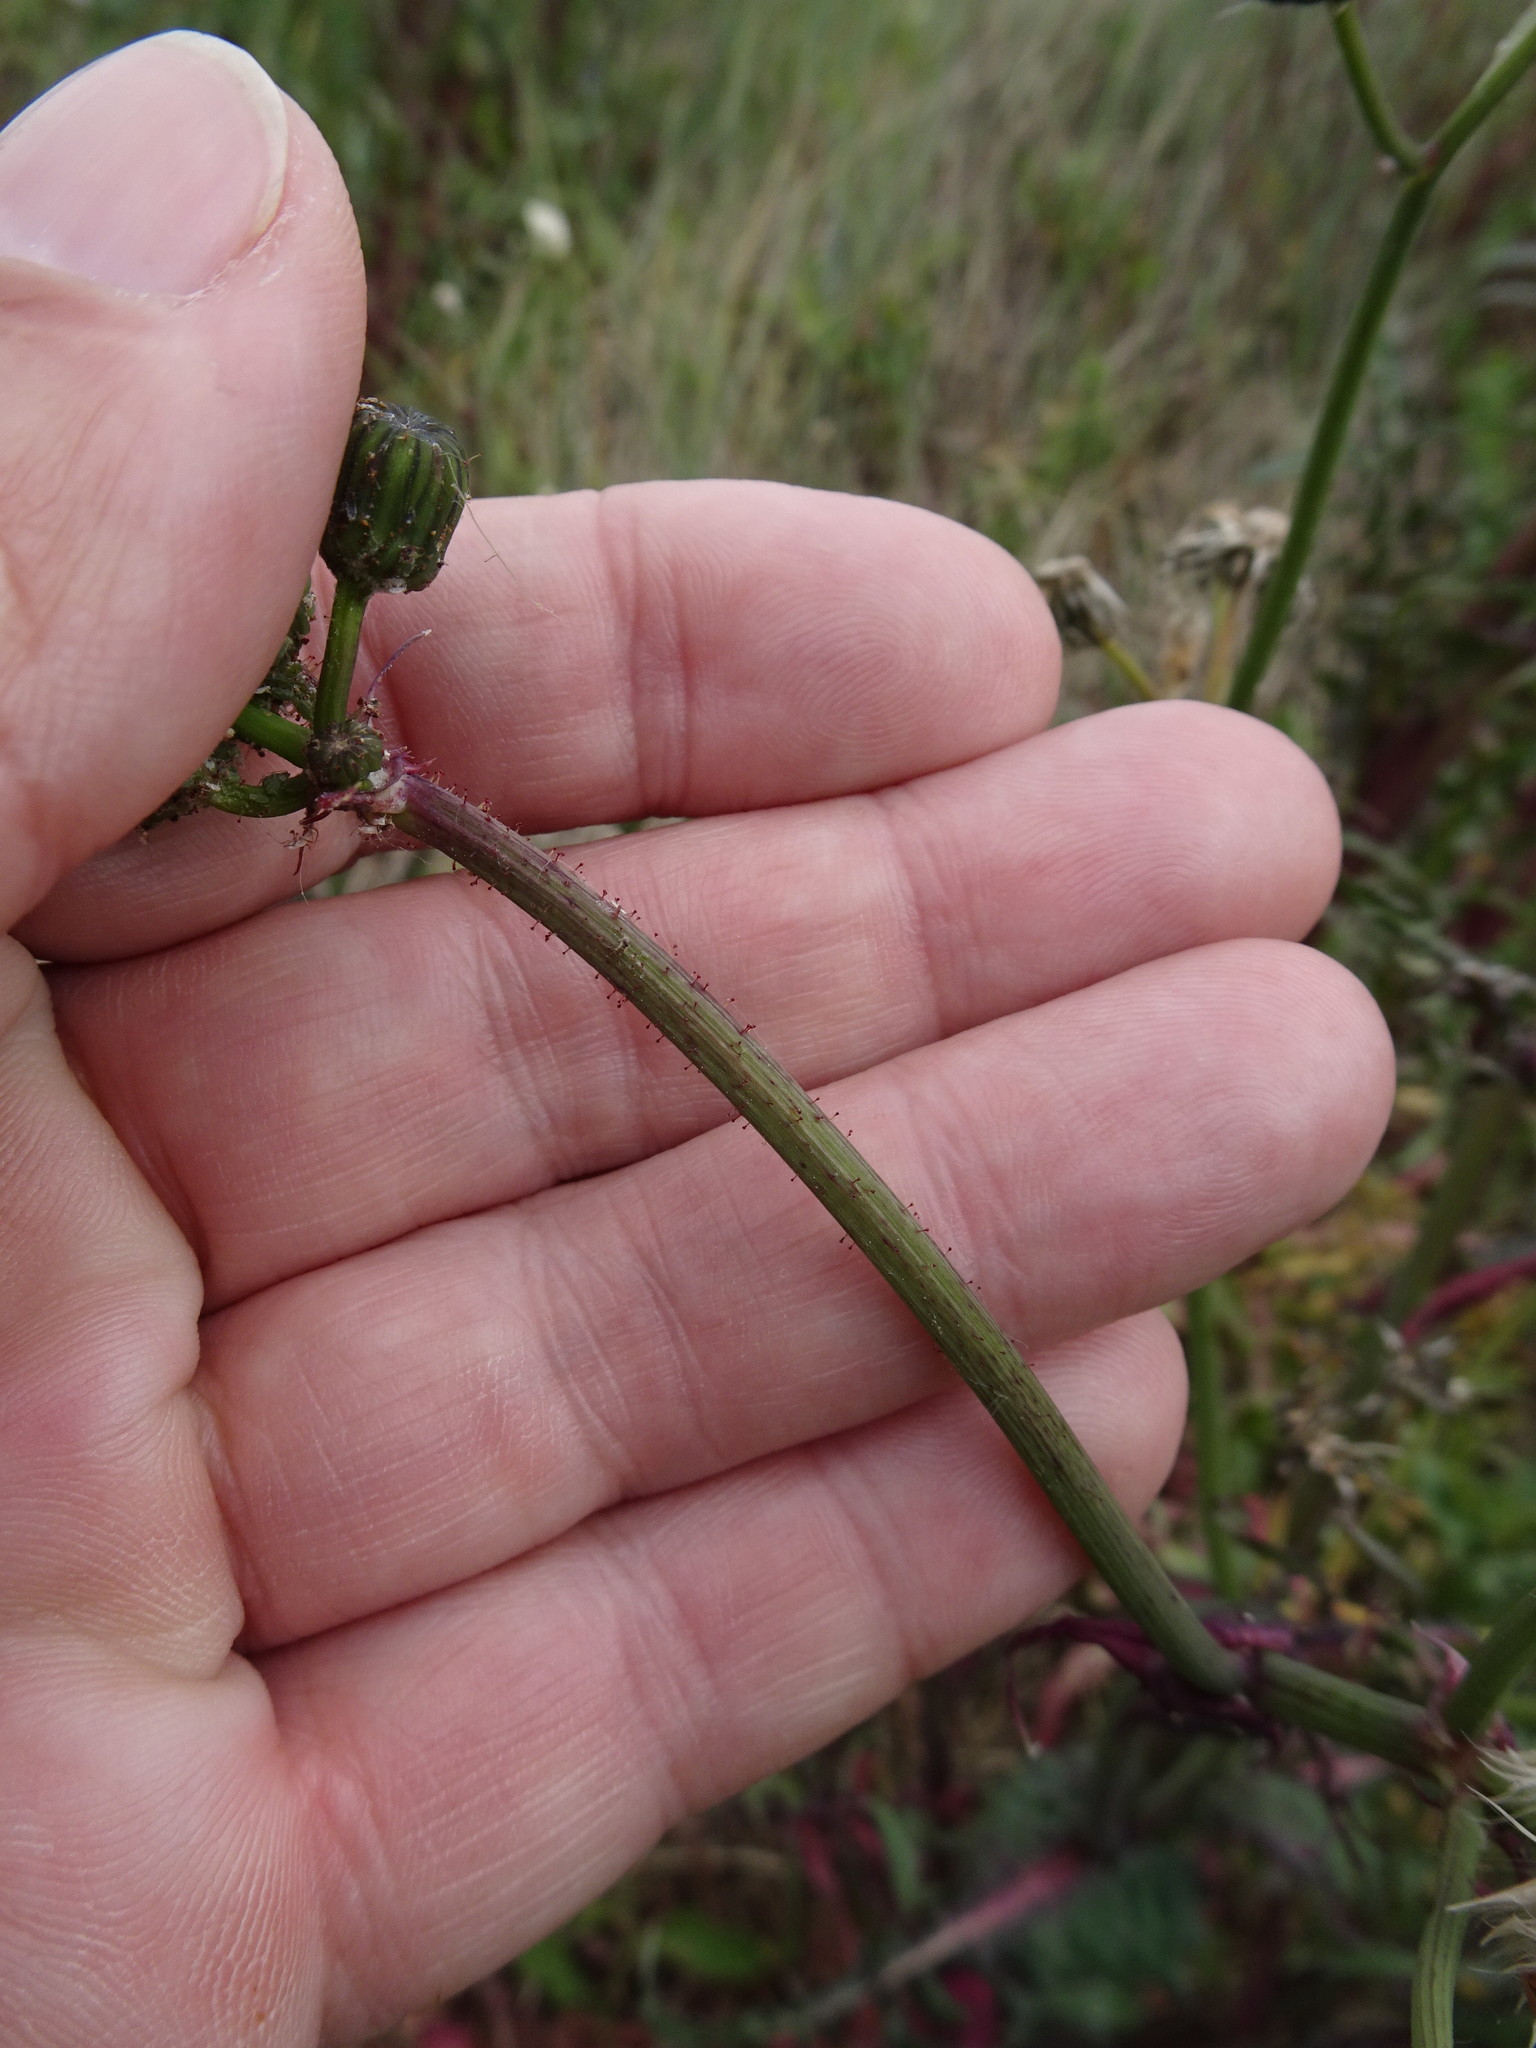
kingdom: Plantae
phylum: Tracheophyta
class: Magnoliopsida
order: Asterales
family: Asteraceae
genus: Sonchus
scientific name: Sonchus oleraceus
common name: Common sowthistle
